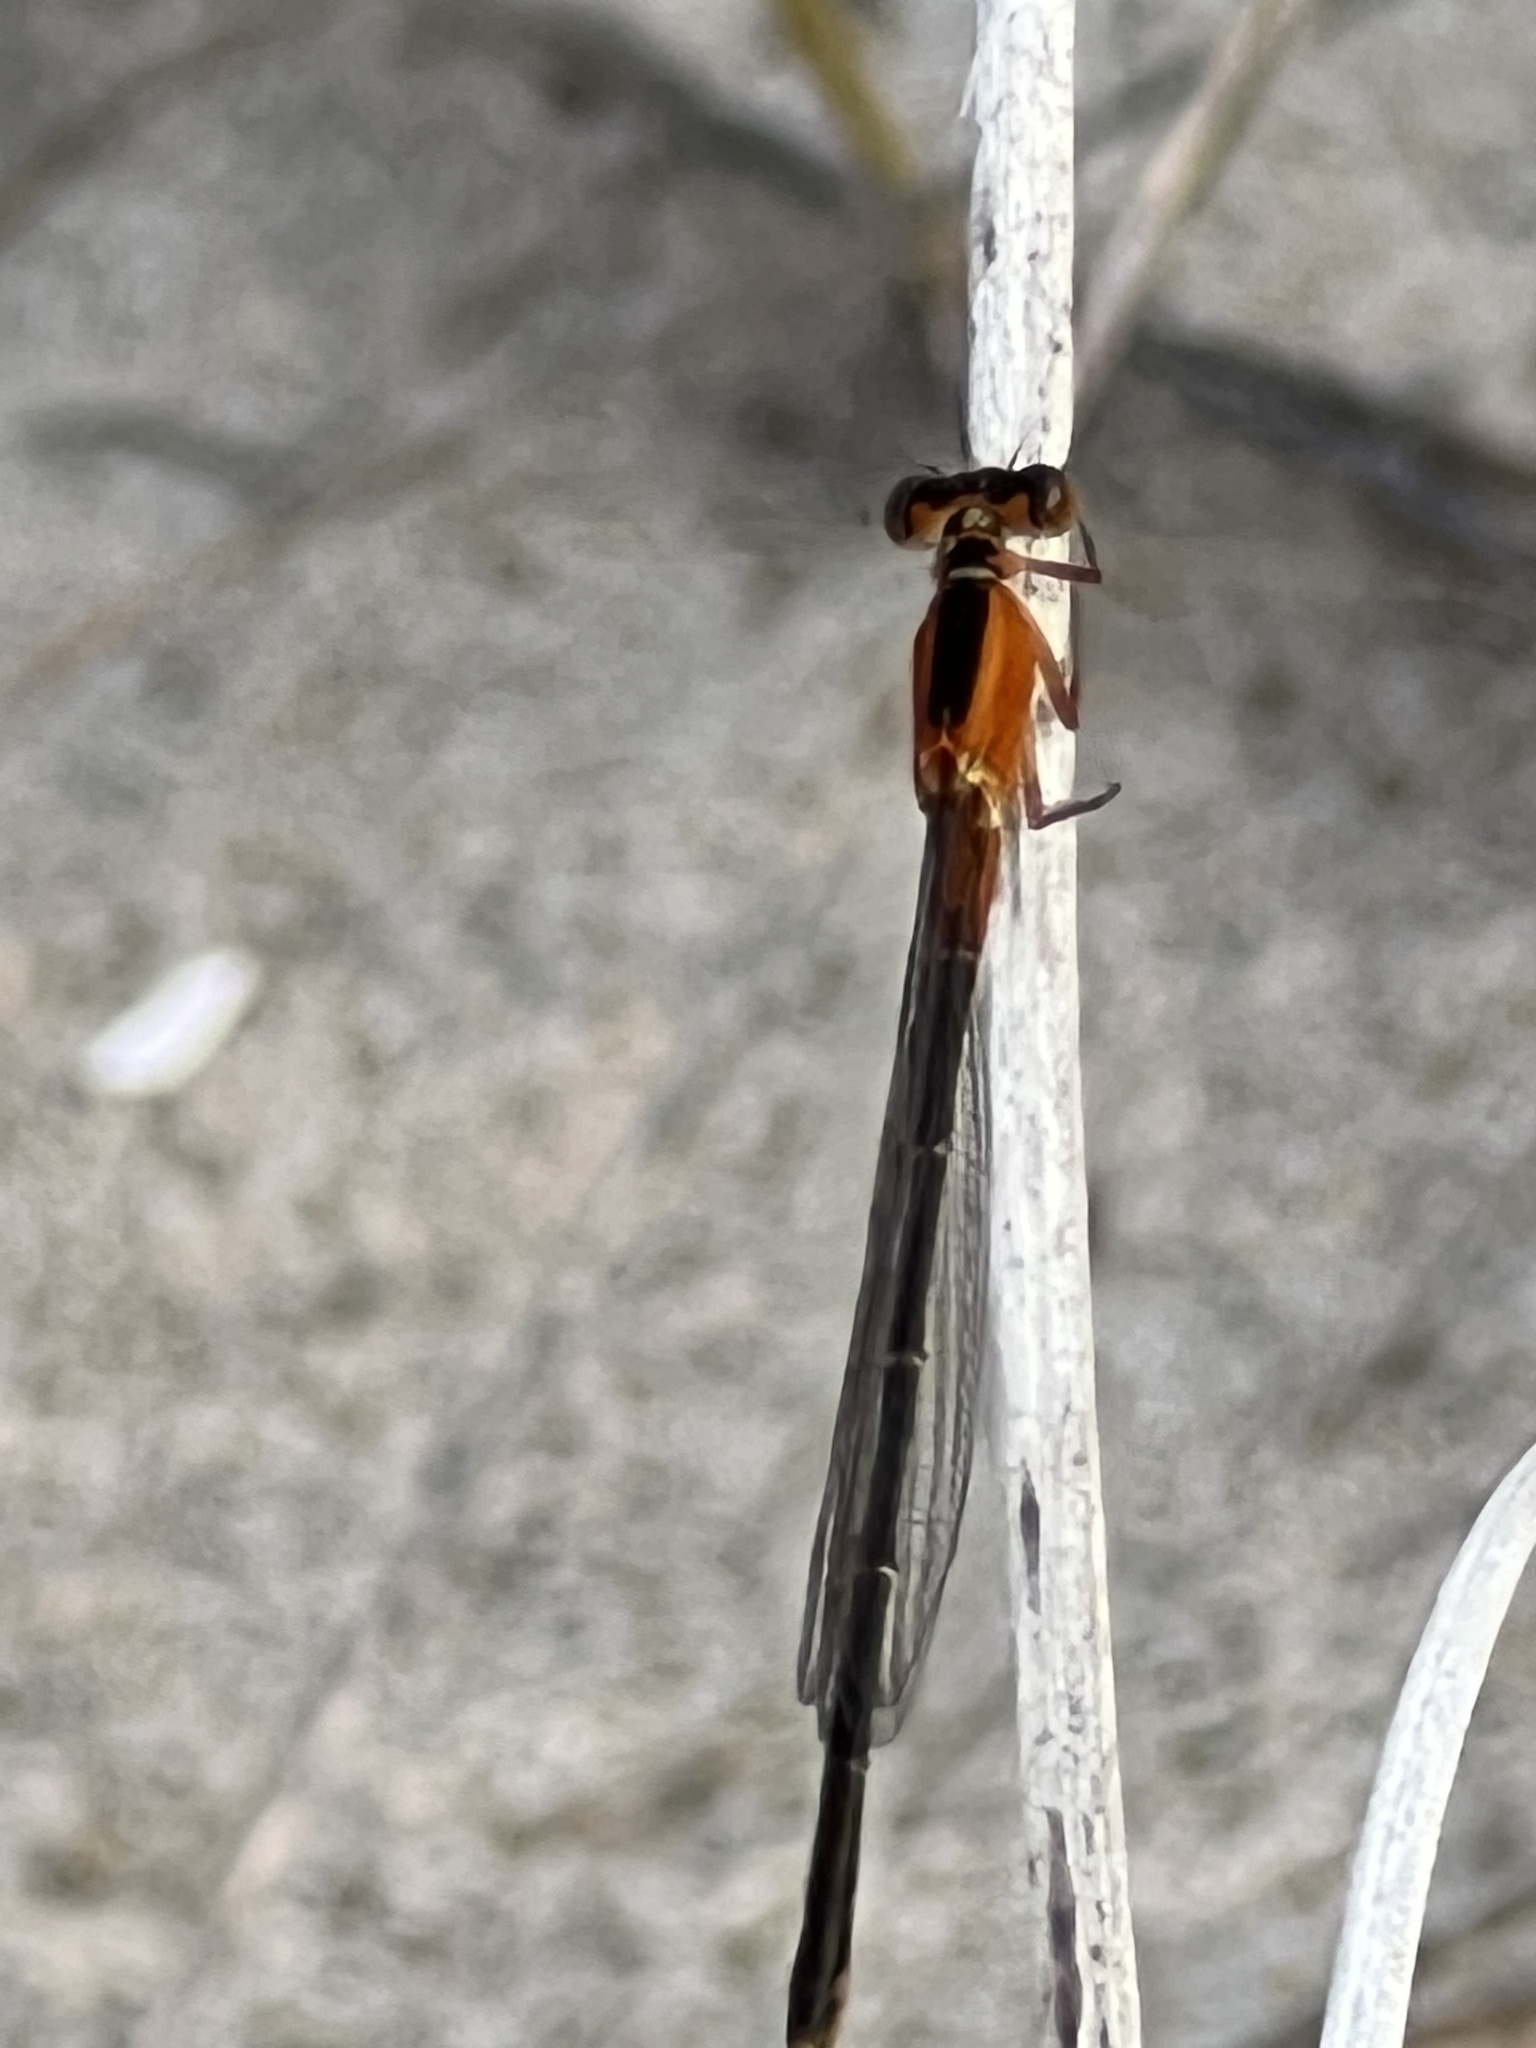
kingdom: Animalia
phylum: Arthropoda
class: Insecta
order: Odonata
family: Coenagrionidae
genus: Ischnura
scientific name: Ischnura ramburii
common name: Rambur's forktail
